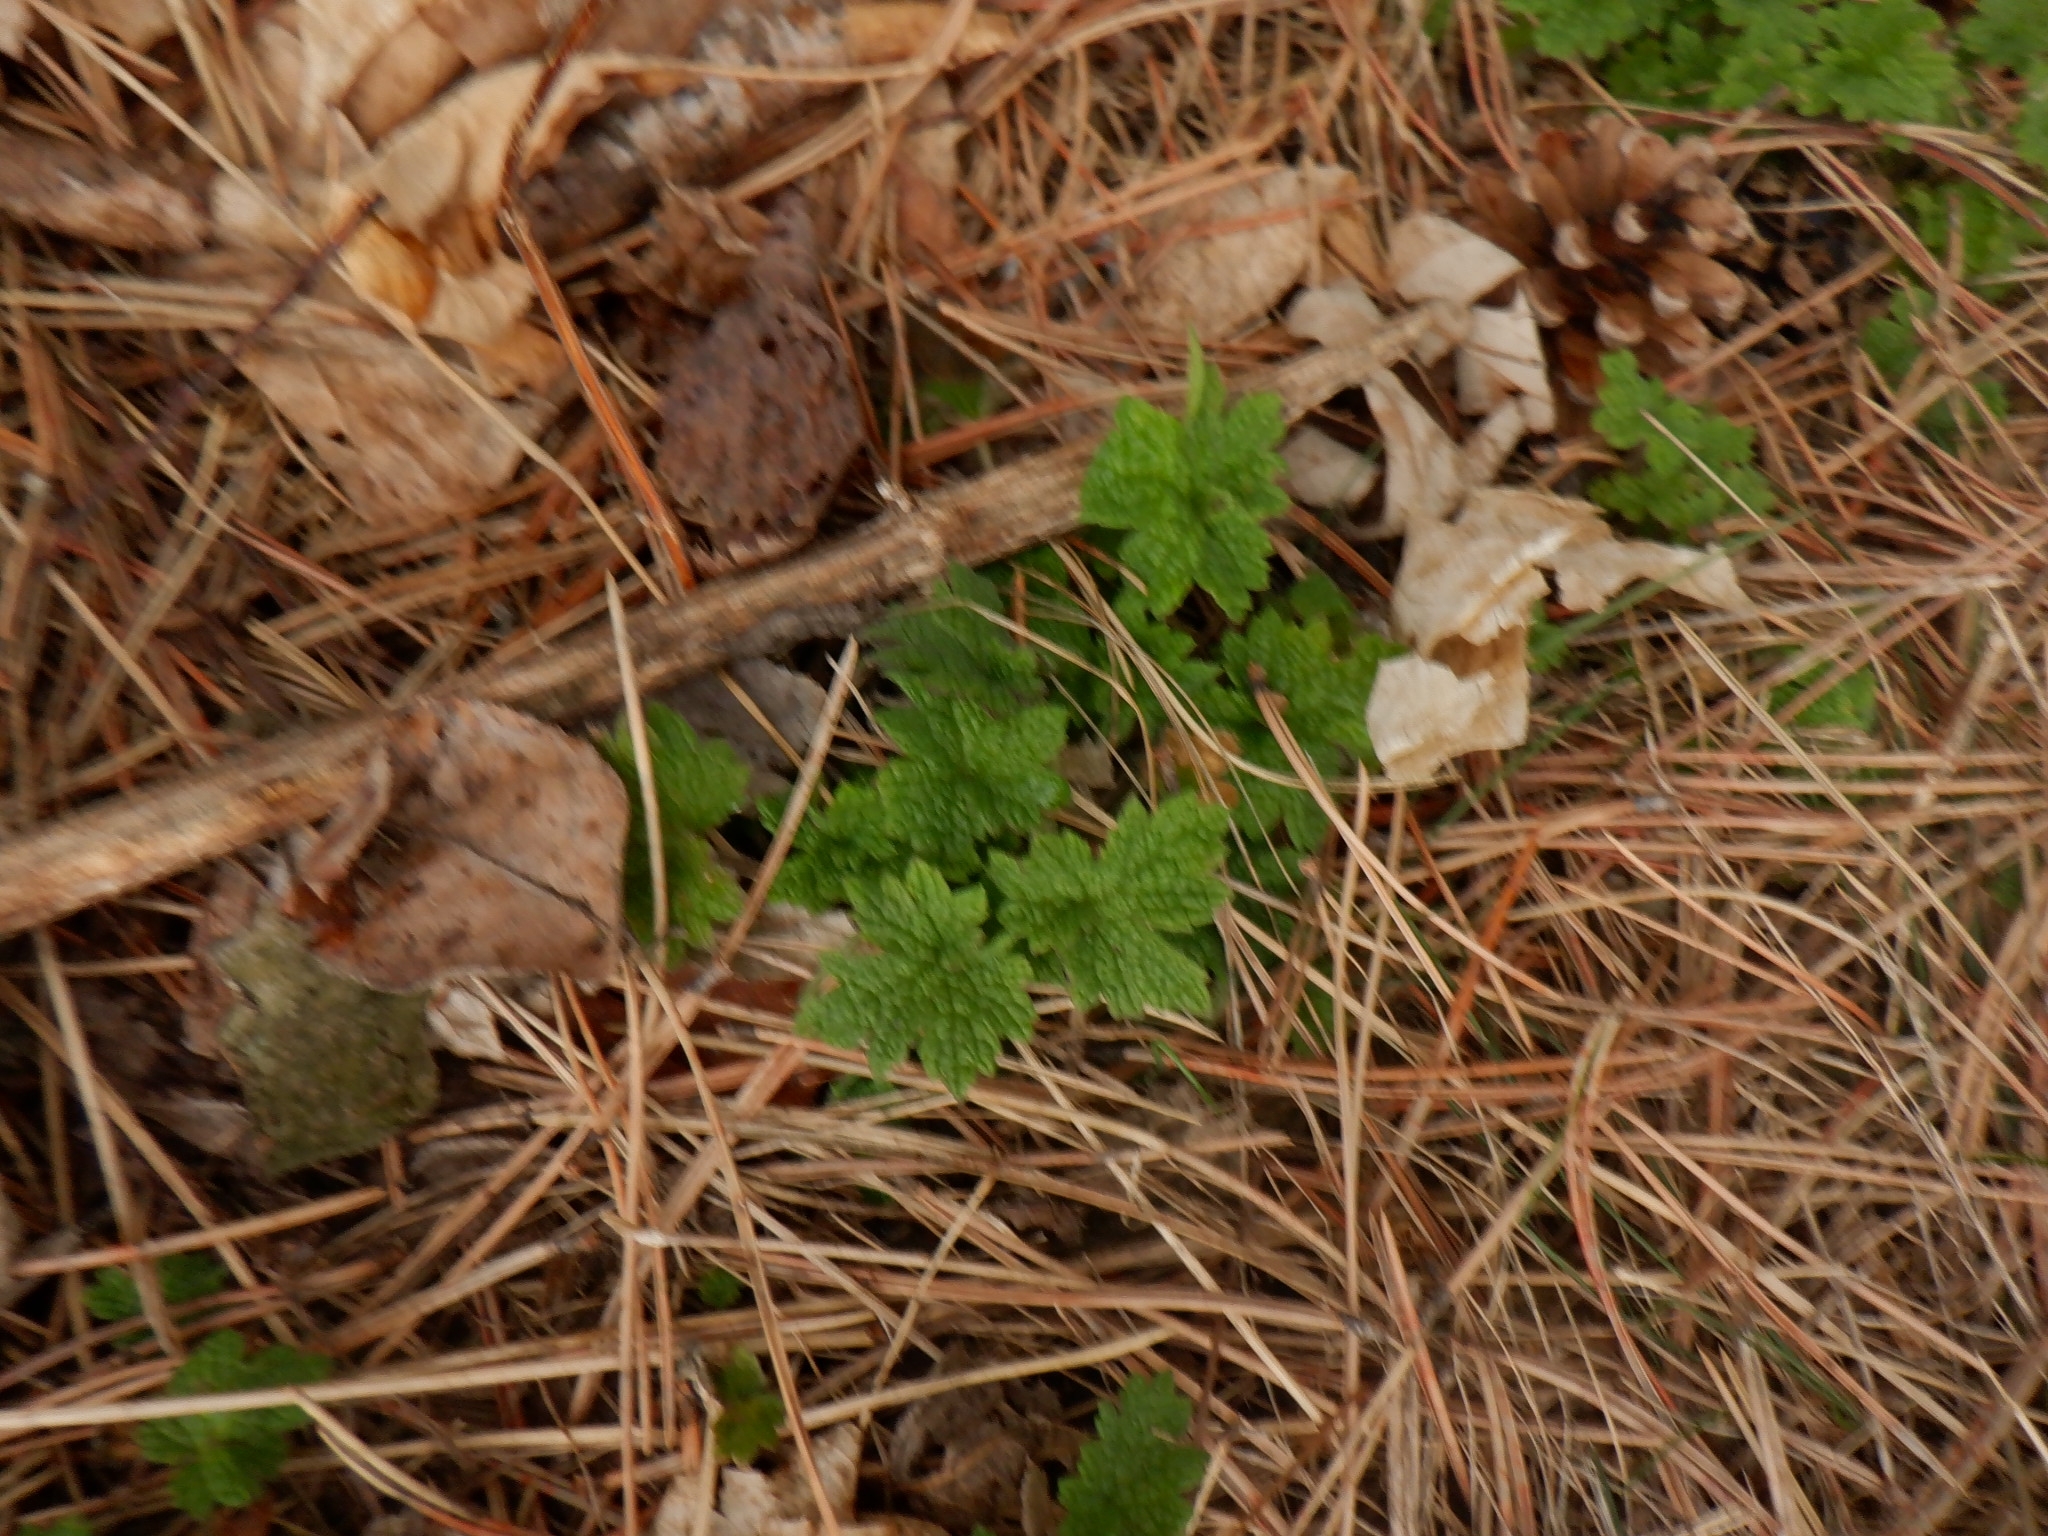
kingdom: Plantae
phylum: Tracheophyta
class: Magnoliopsida
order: Lamiales
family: Lamiaceae
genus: Leonurus
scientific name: Leonurus cardiaca
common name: Motherwort
